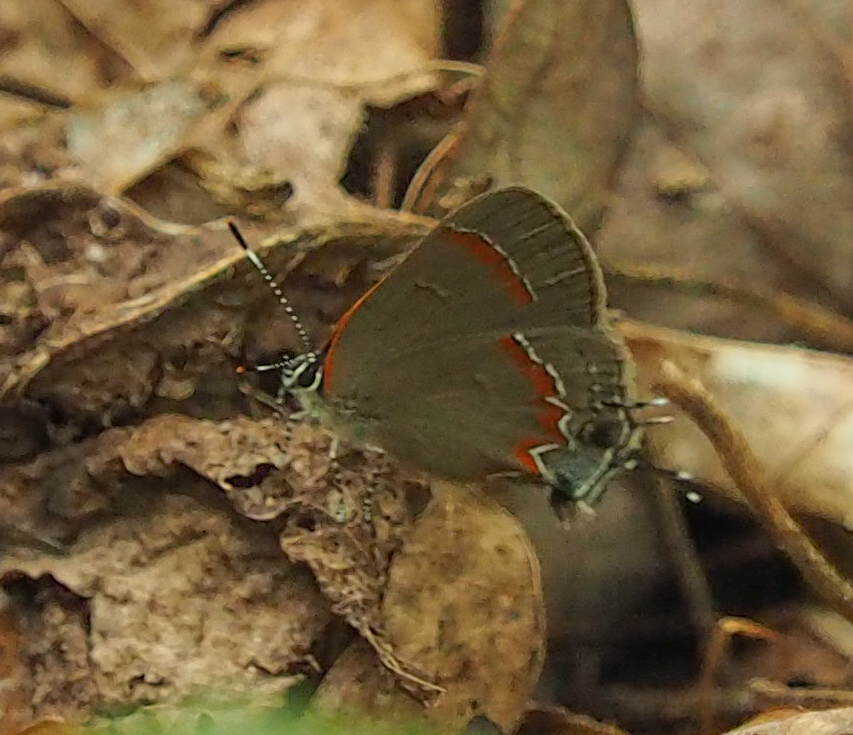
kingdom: Animalia
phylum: Arthropoda
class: Insecta
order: Lepidoptera
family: Lycaenidae
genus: Calycopis
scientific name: Calycopis cecrops
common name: Red-banded hairstreak
